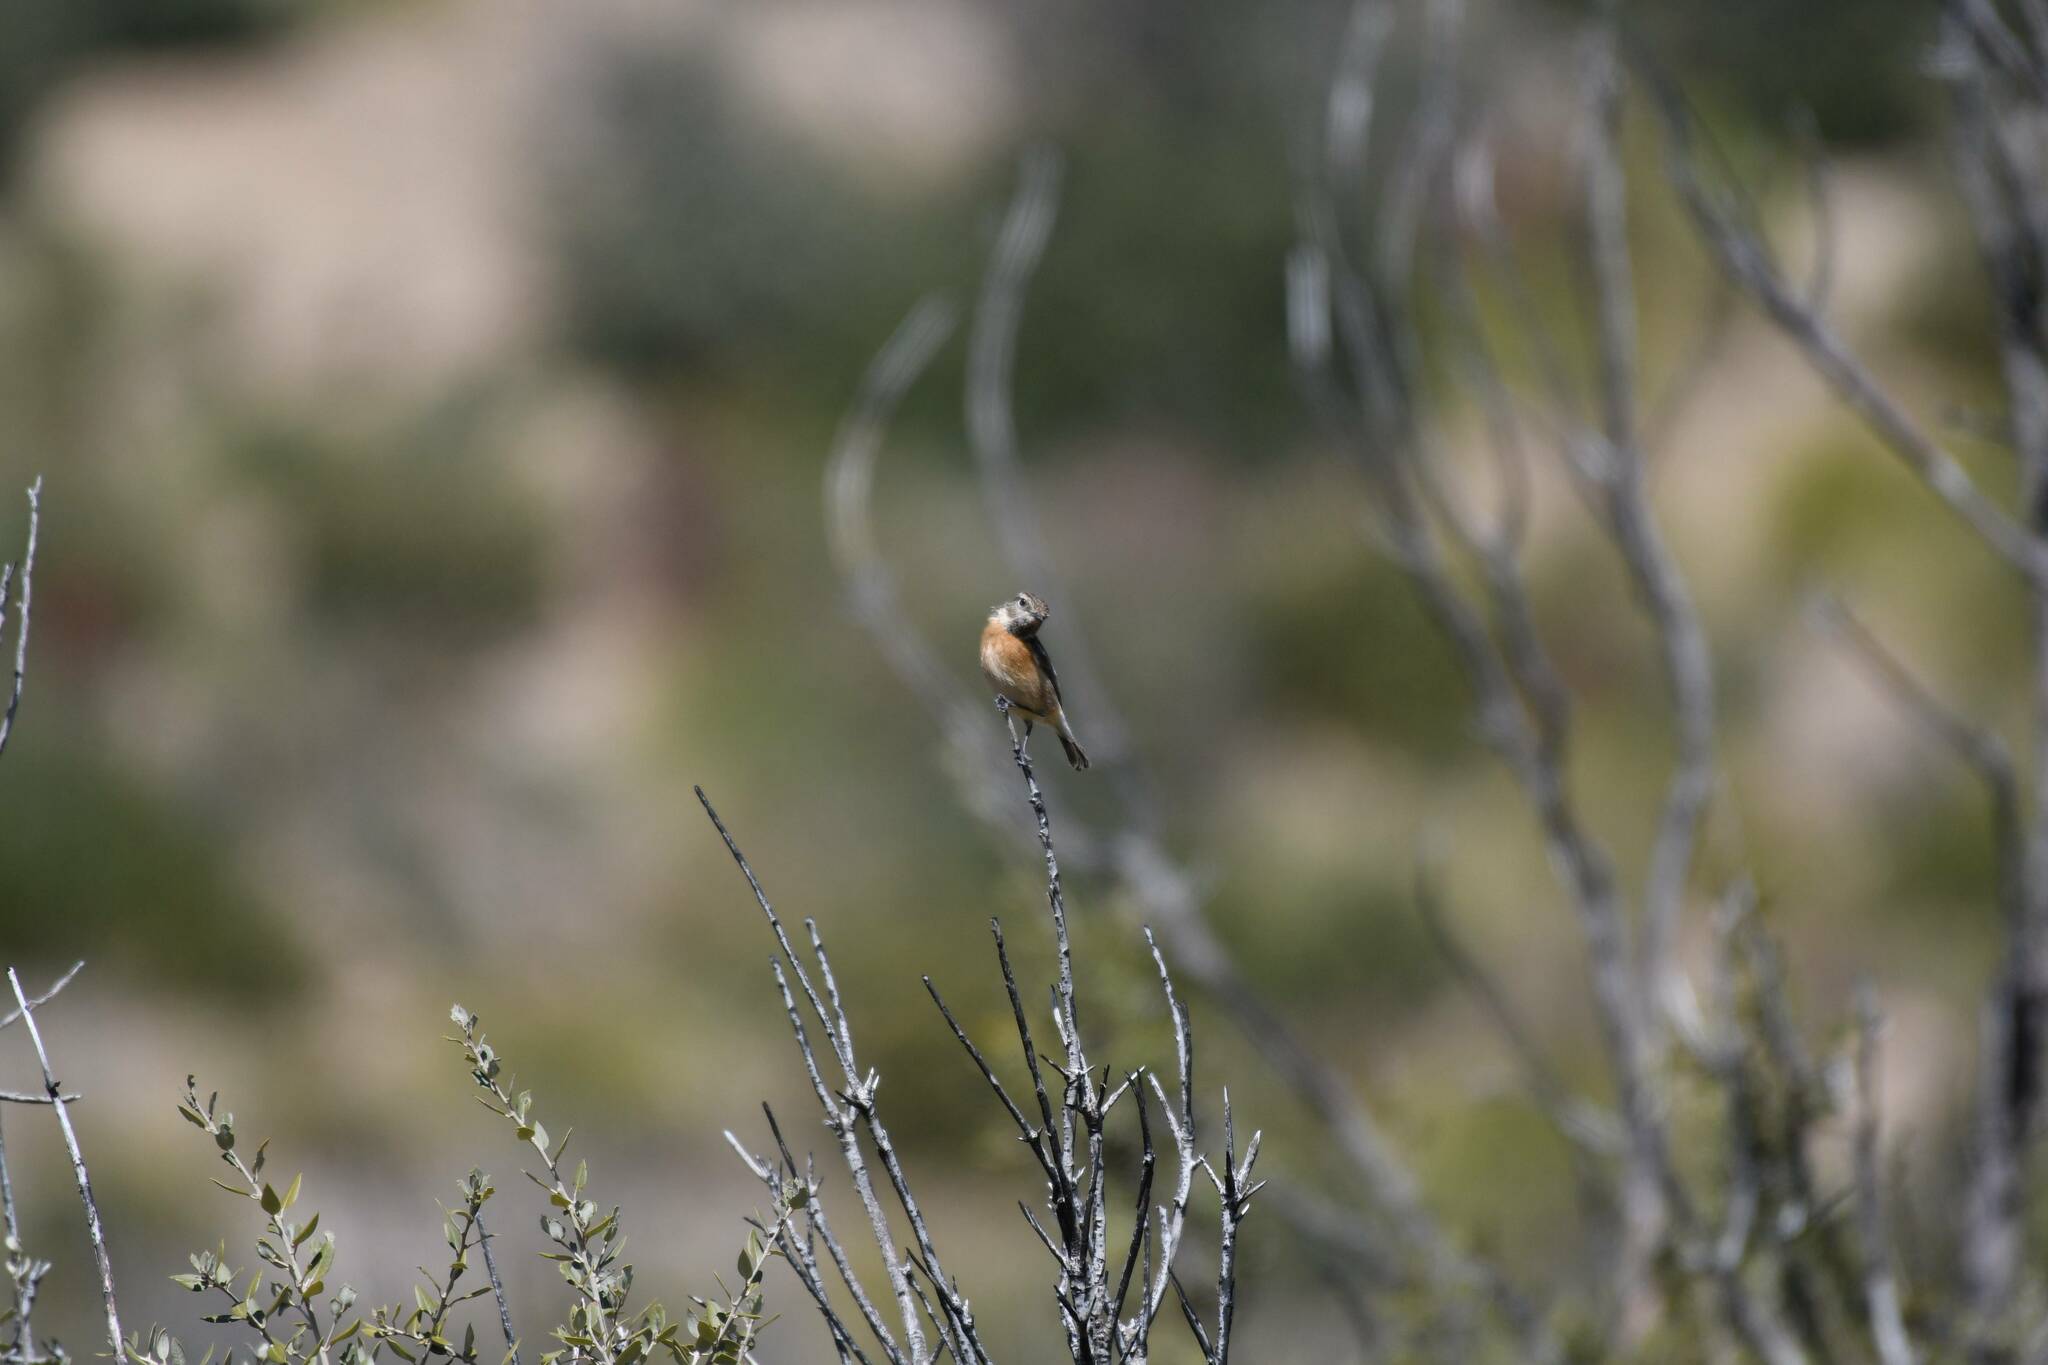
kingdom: Animalia
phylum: Chordata
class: Aves
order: Passeriformes
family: Muscicapidae
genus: Saxicola
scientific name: Saxicola rubicola
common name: European stonechat
